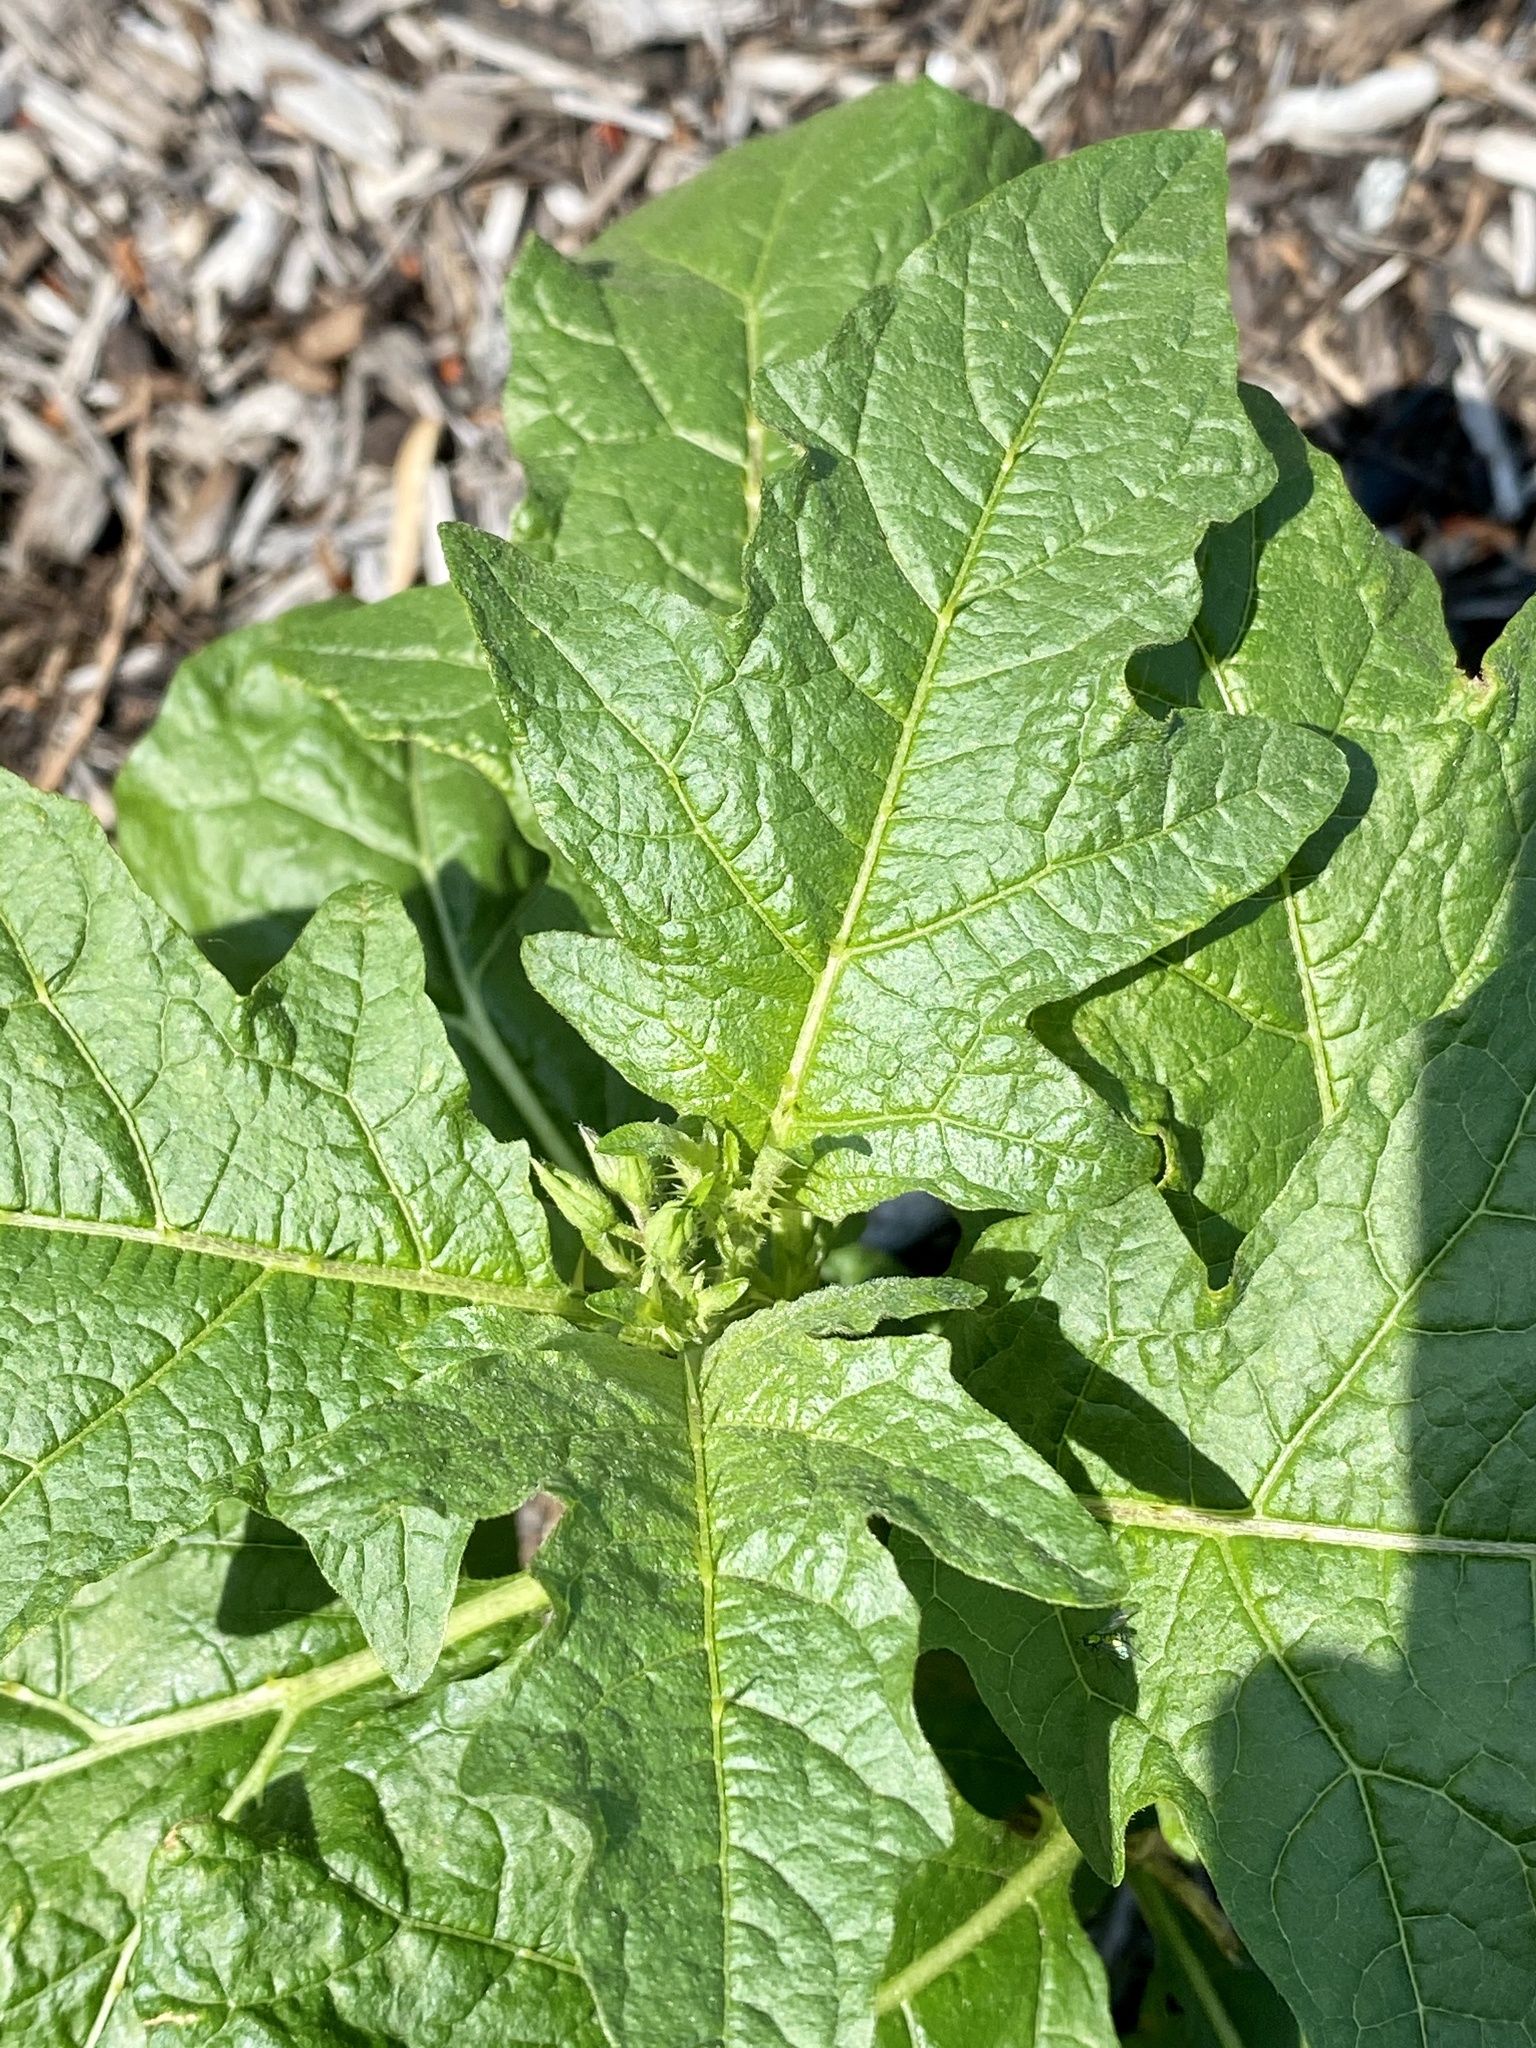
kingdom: Plantae
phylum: Tracheophyta
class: Magnoliopsida
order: Solanales
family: Solanaceae
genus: Solanum
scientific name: Solanum carolinense
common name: Horse-nettle
